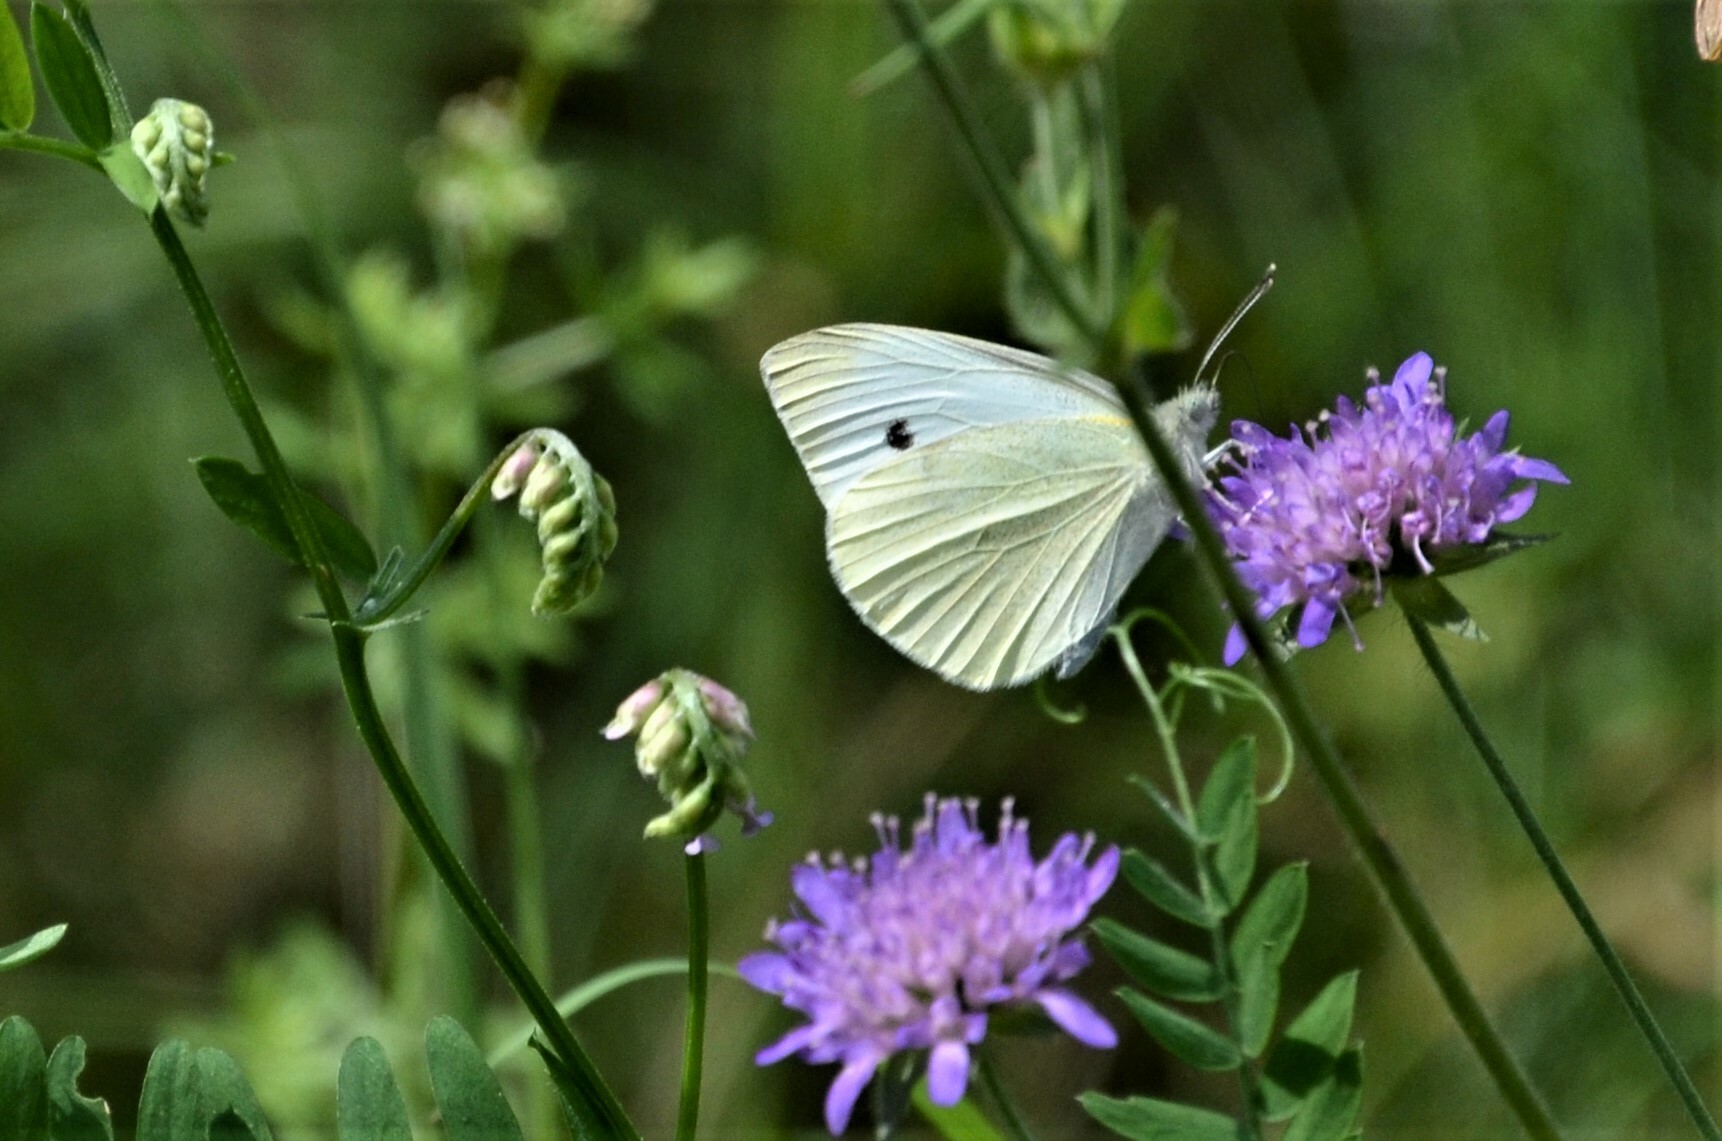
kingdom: Animalia
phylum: Arthropoda
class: Insecta
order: Lepidoptera
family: Pieridae
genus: Pieris
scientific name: Pieris rapae
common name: Small white
